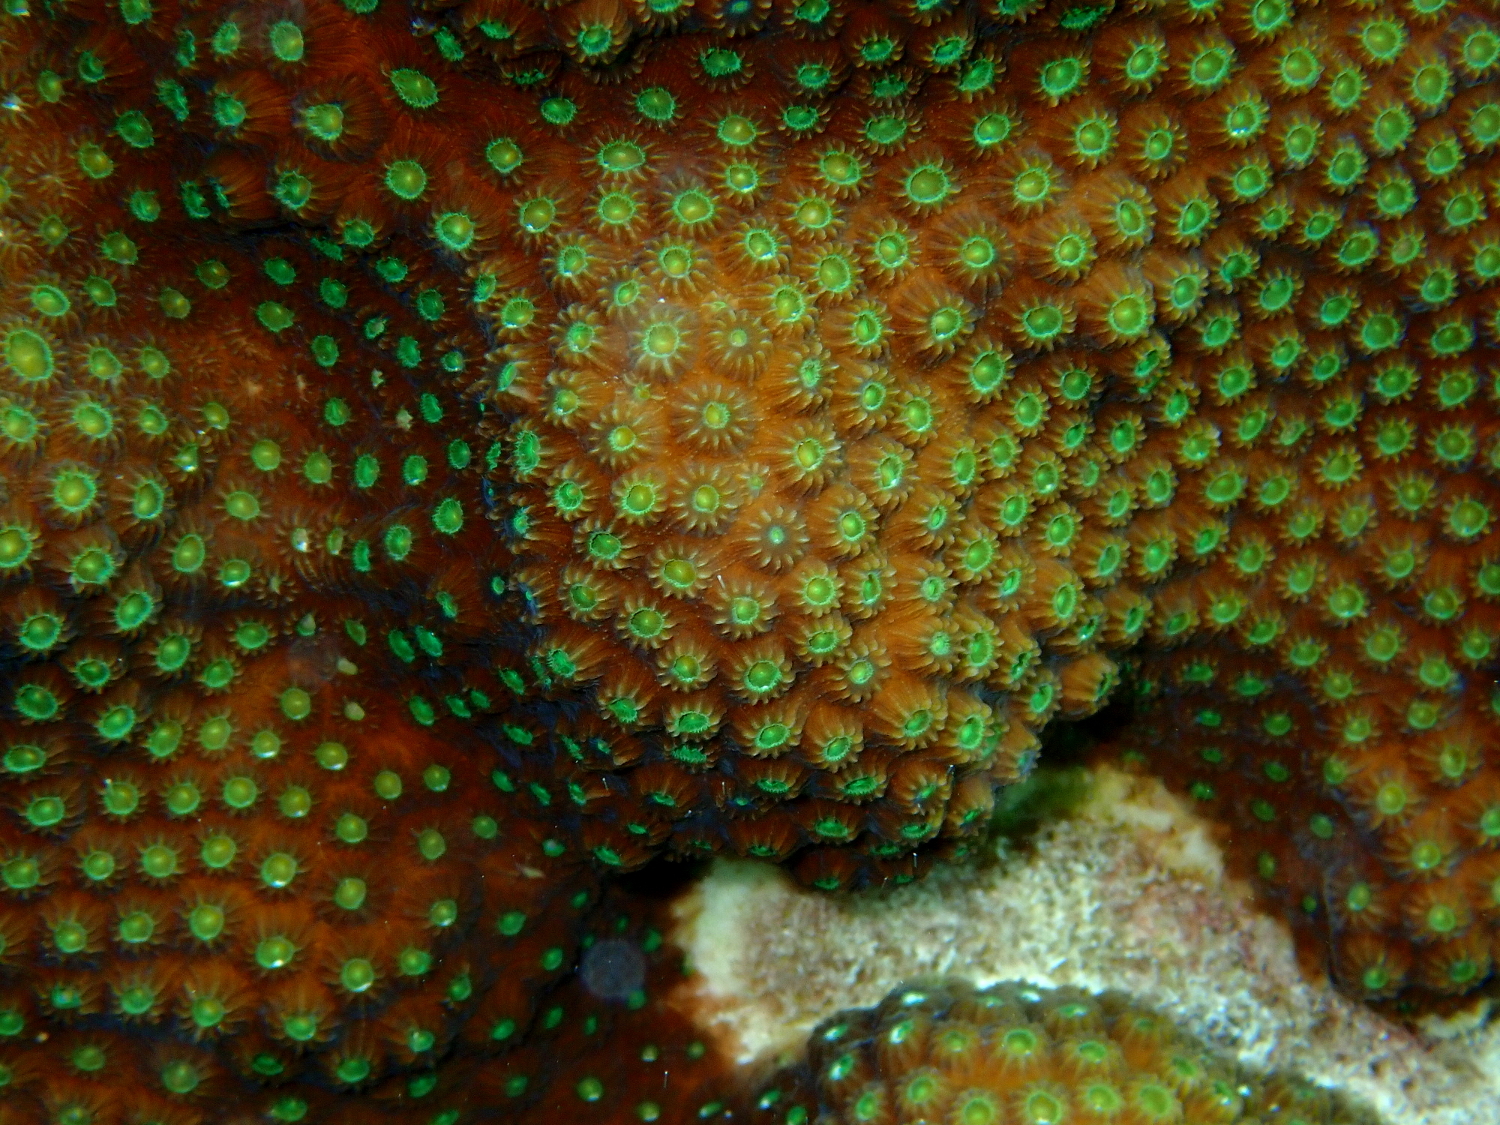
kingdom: Animalia
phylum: Cnidaria
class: Anthozoa
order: Scleractinia
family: Merulinidae
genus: Orbicella
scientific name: Orbicella faveolata
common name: Mountainous star coral
